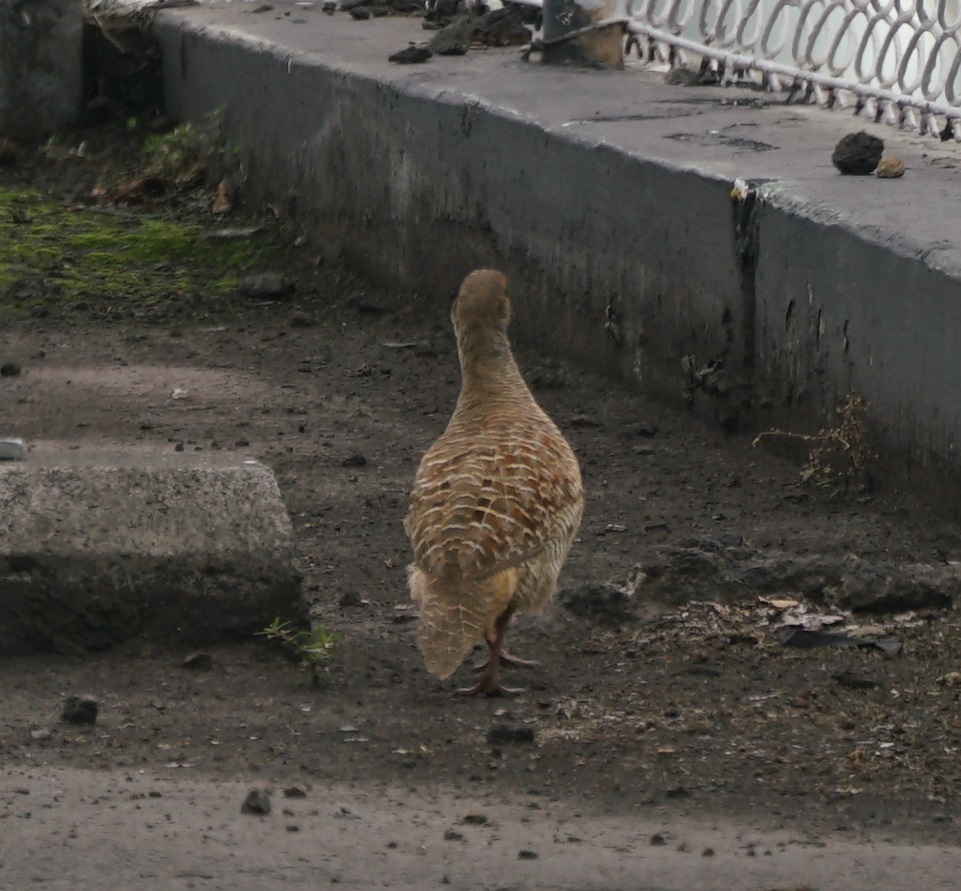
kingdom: Animalia
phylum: Chordata
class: Aves
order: Galliformes
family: Phasianidae
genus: Ortygornis
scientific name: Ortygornis pondicerianus
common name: Grey francolin
